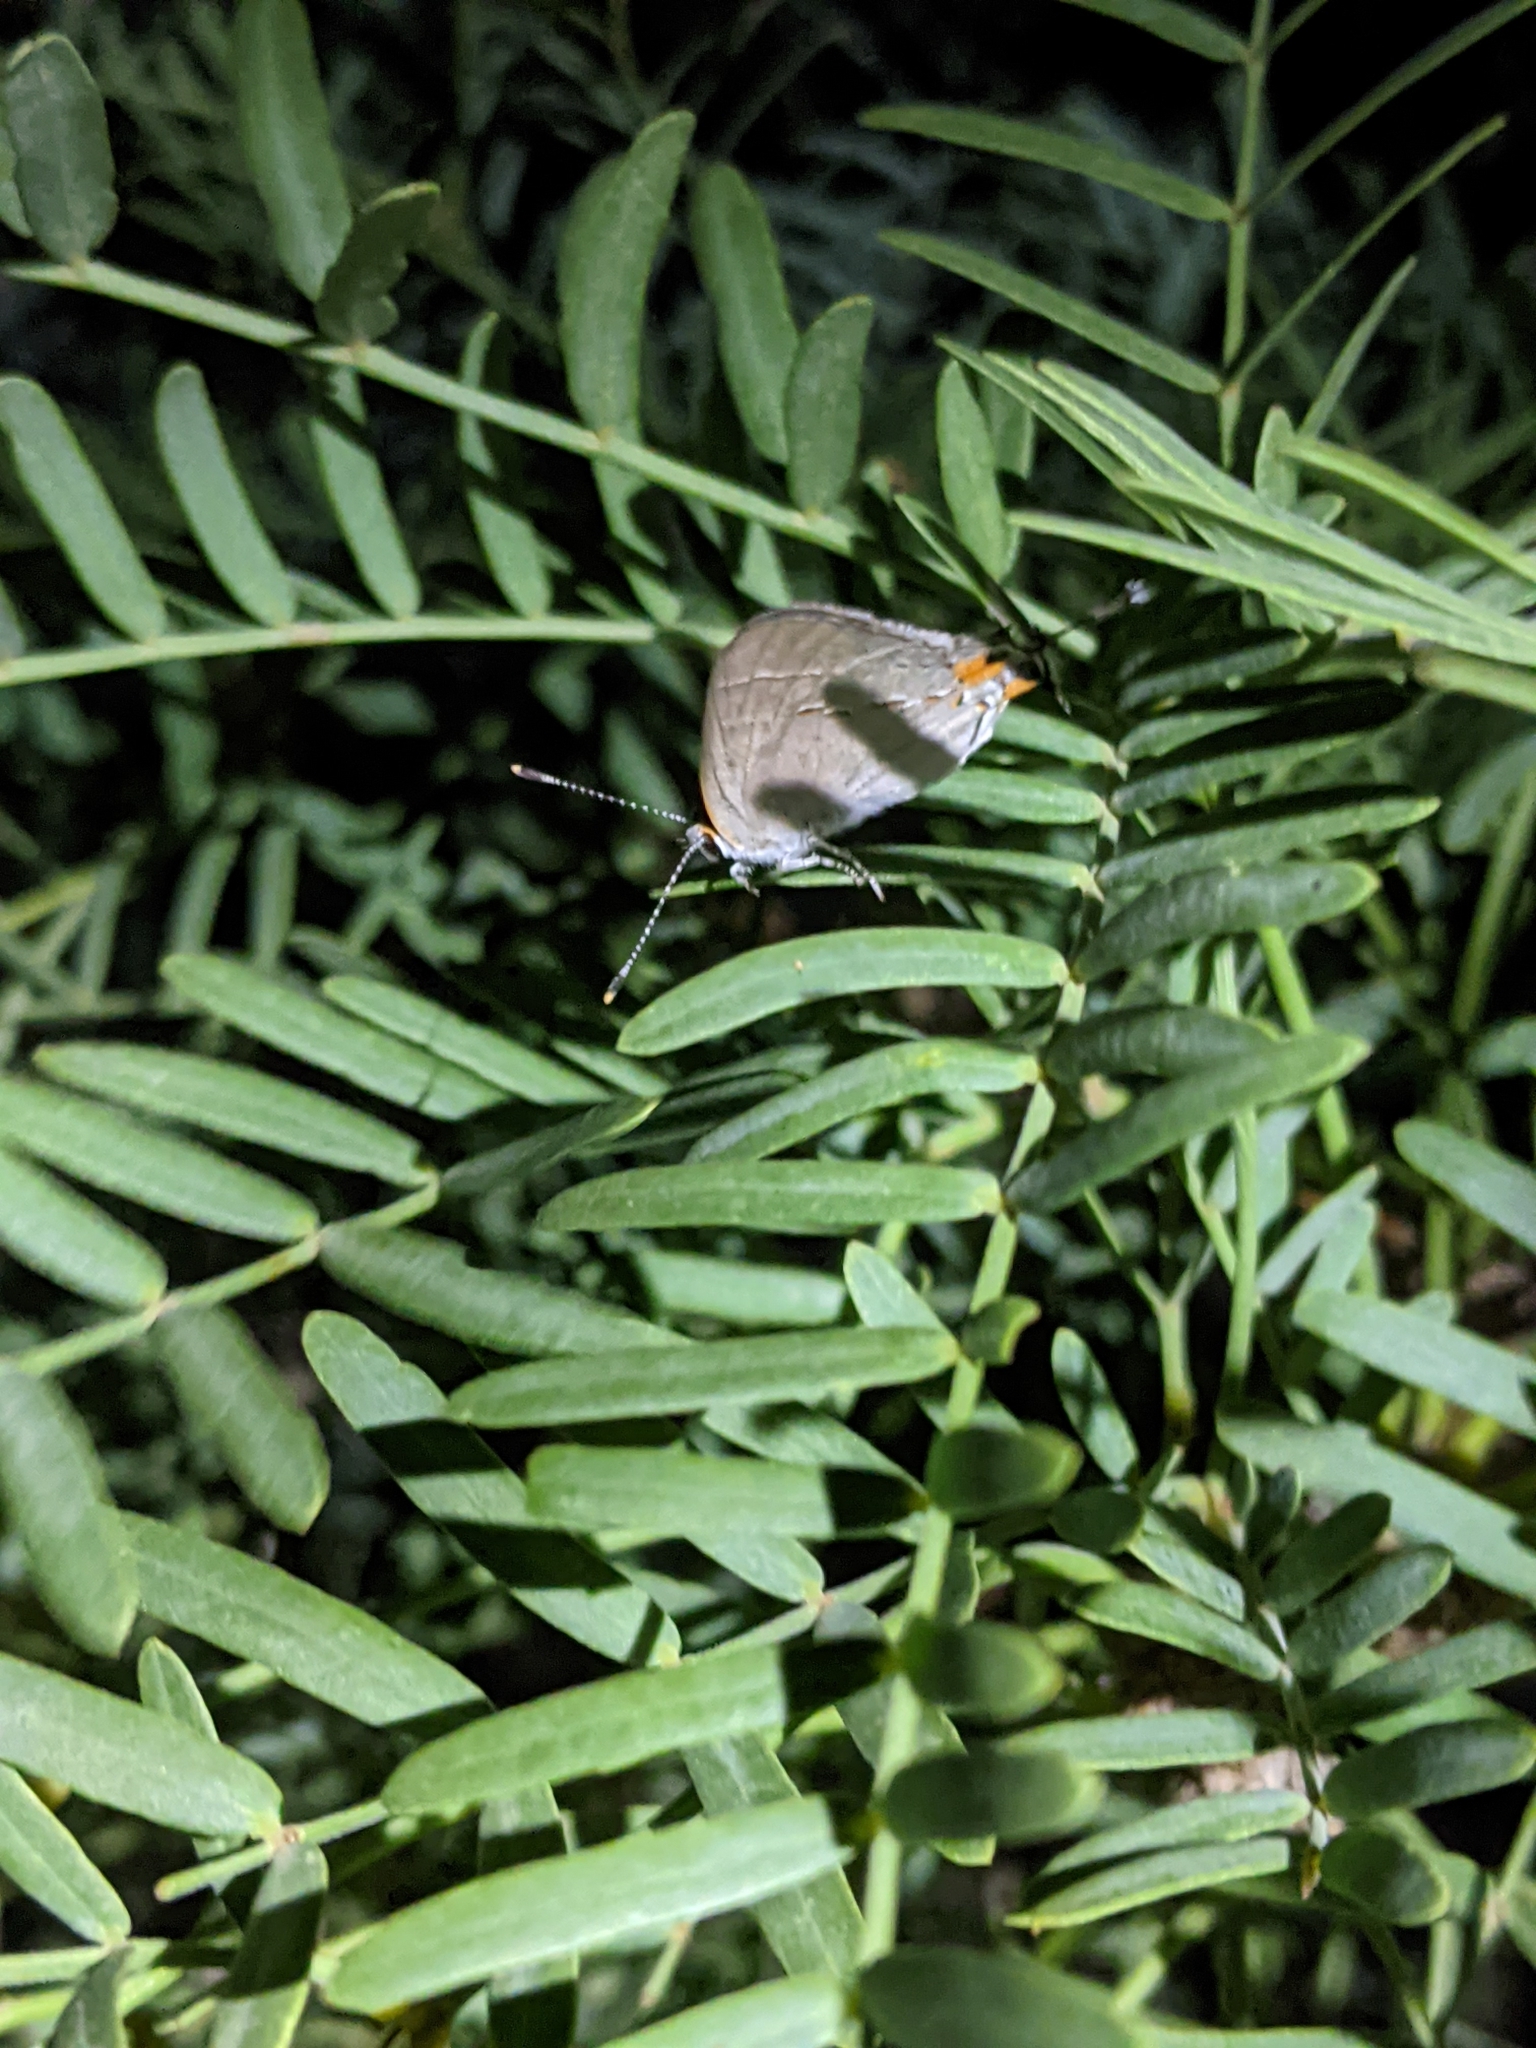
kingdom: Animalia
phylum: Arthropoda
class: Insecta
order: Lepidoptera
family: Lycaenidae
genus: Strymon
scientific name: Strymon melinus
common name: Gray hairstreak
